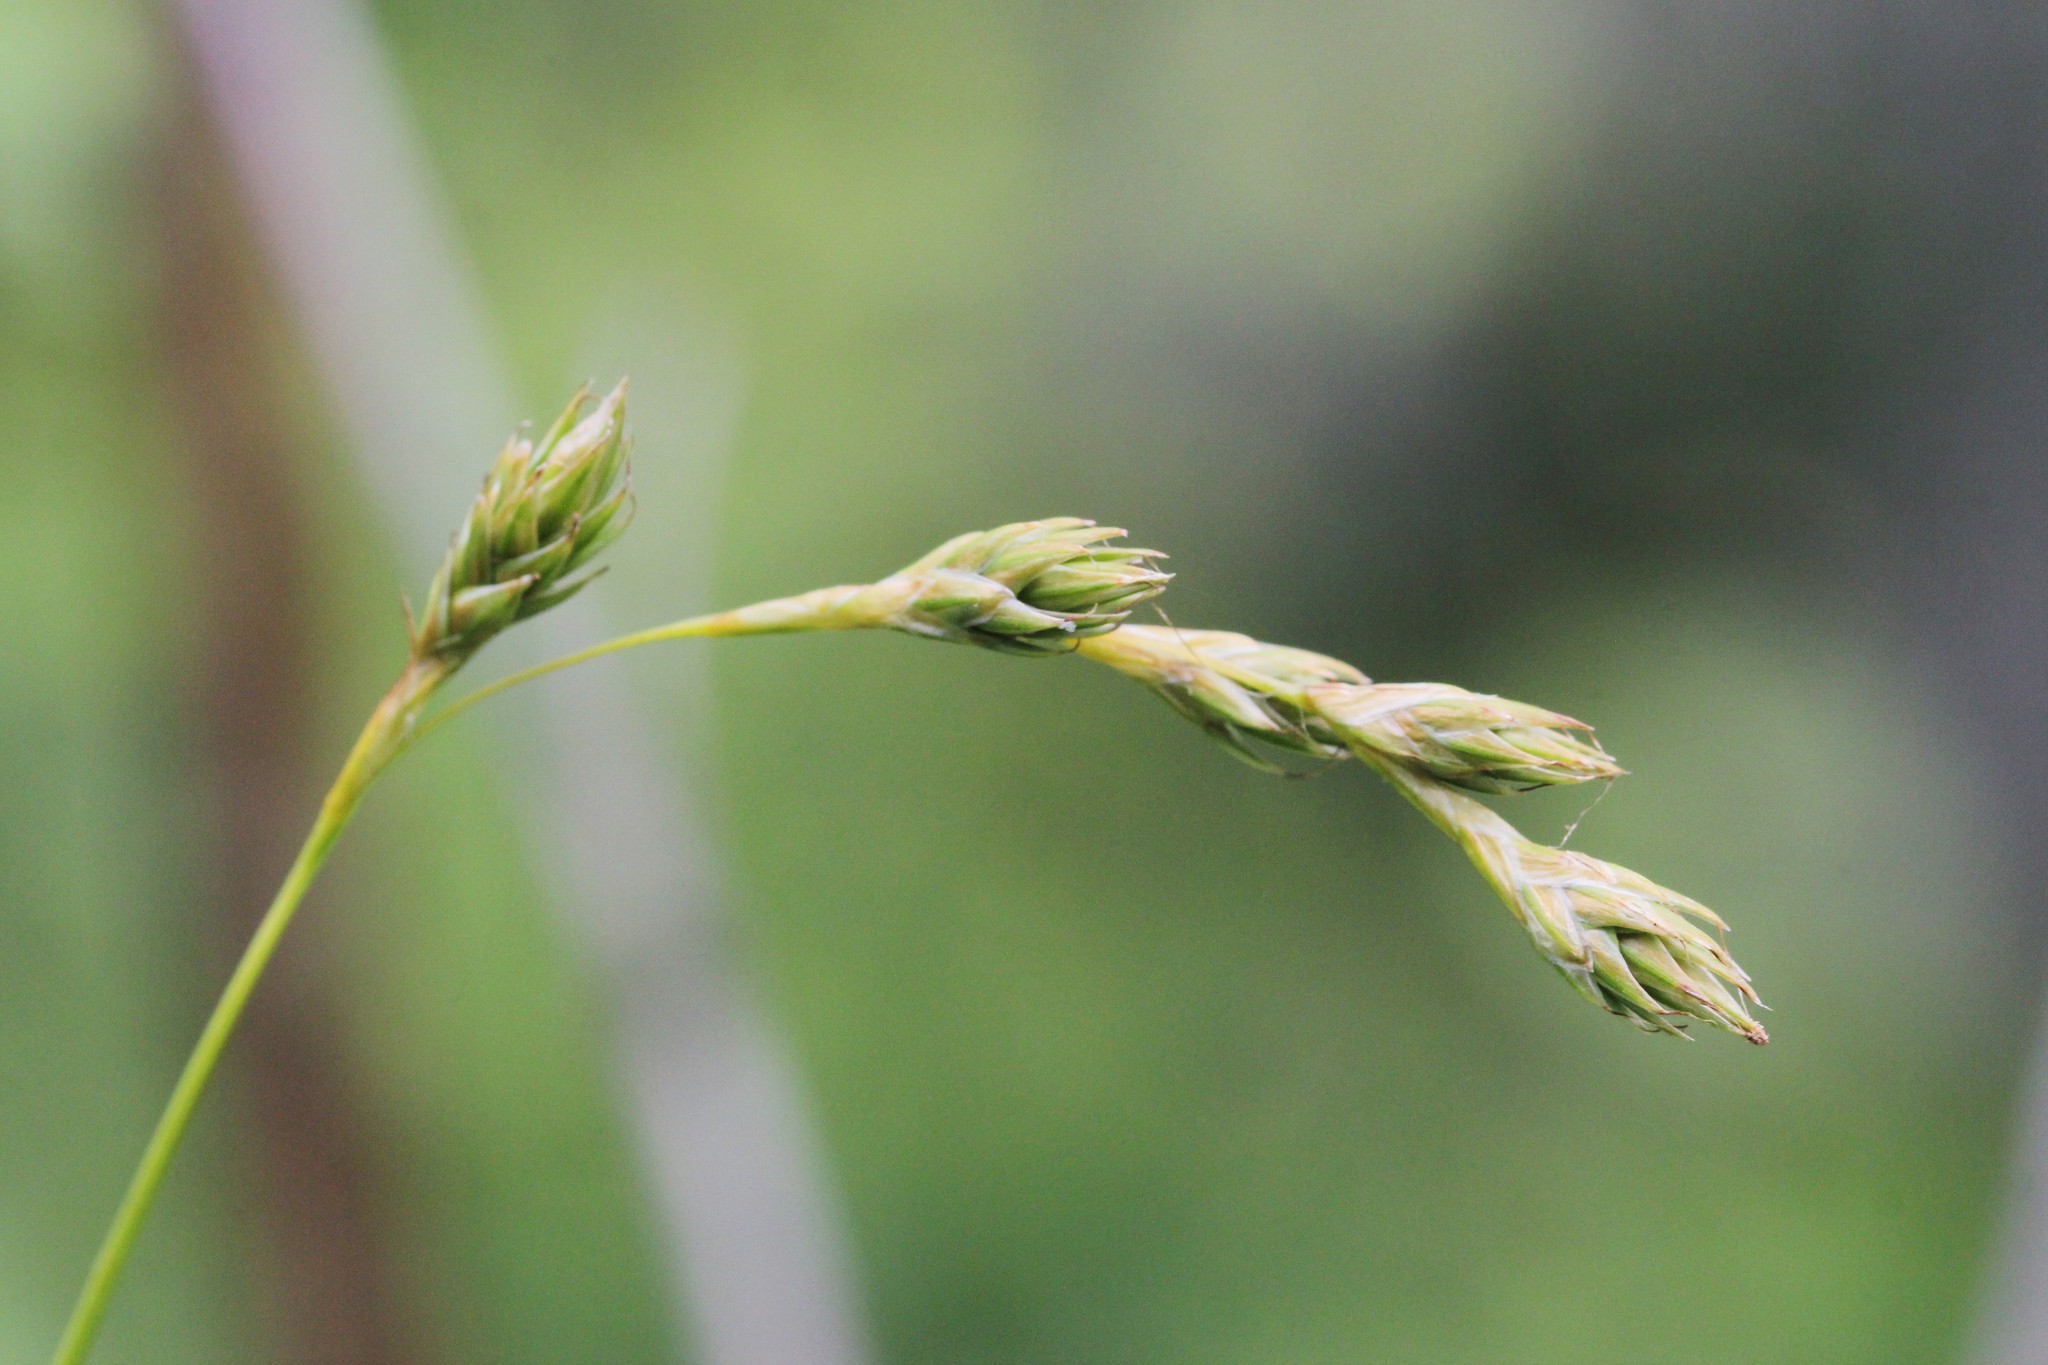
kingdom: Plantae
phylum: Tracheophyta
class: Liliopsida
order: Poales
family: Cyperaceae
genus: Carex
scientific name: Carex foenea
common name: Bronze sedge
